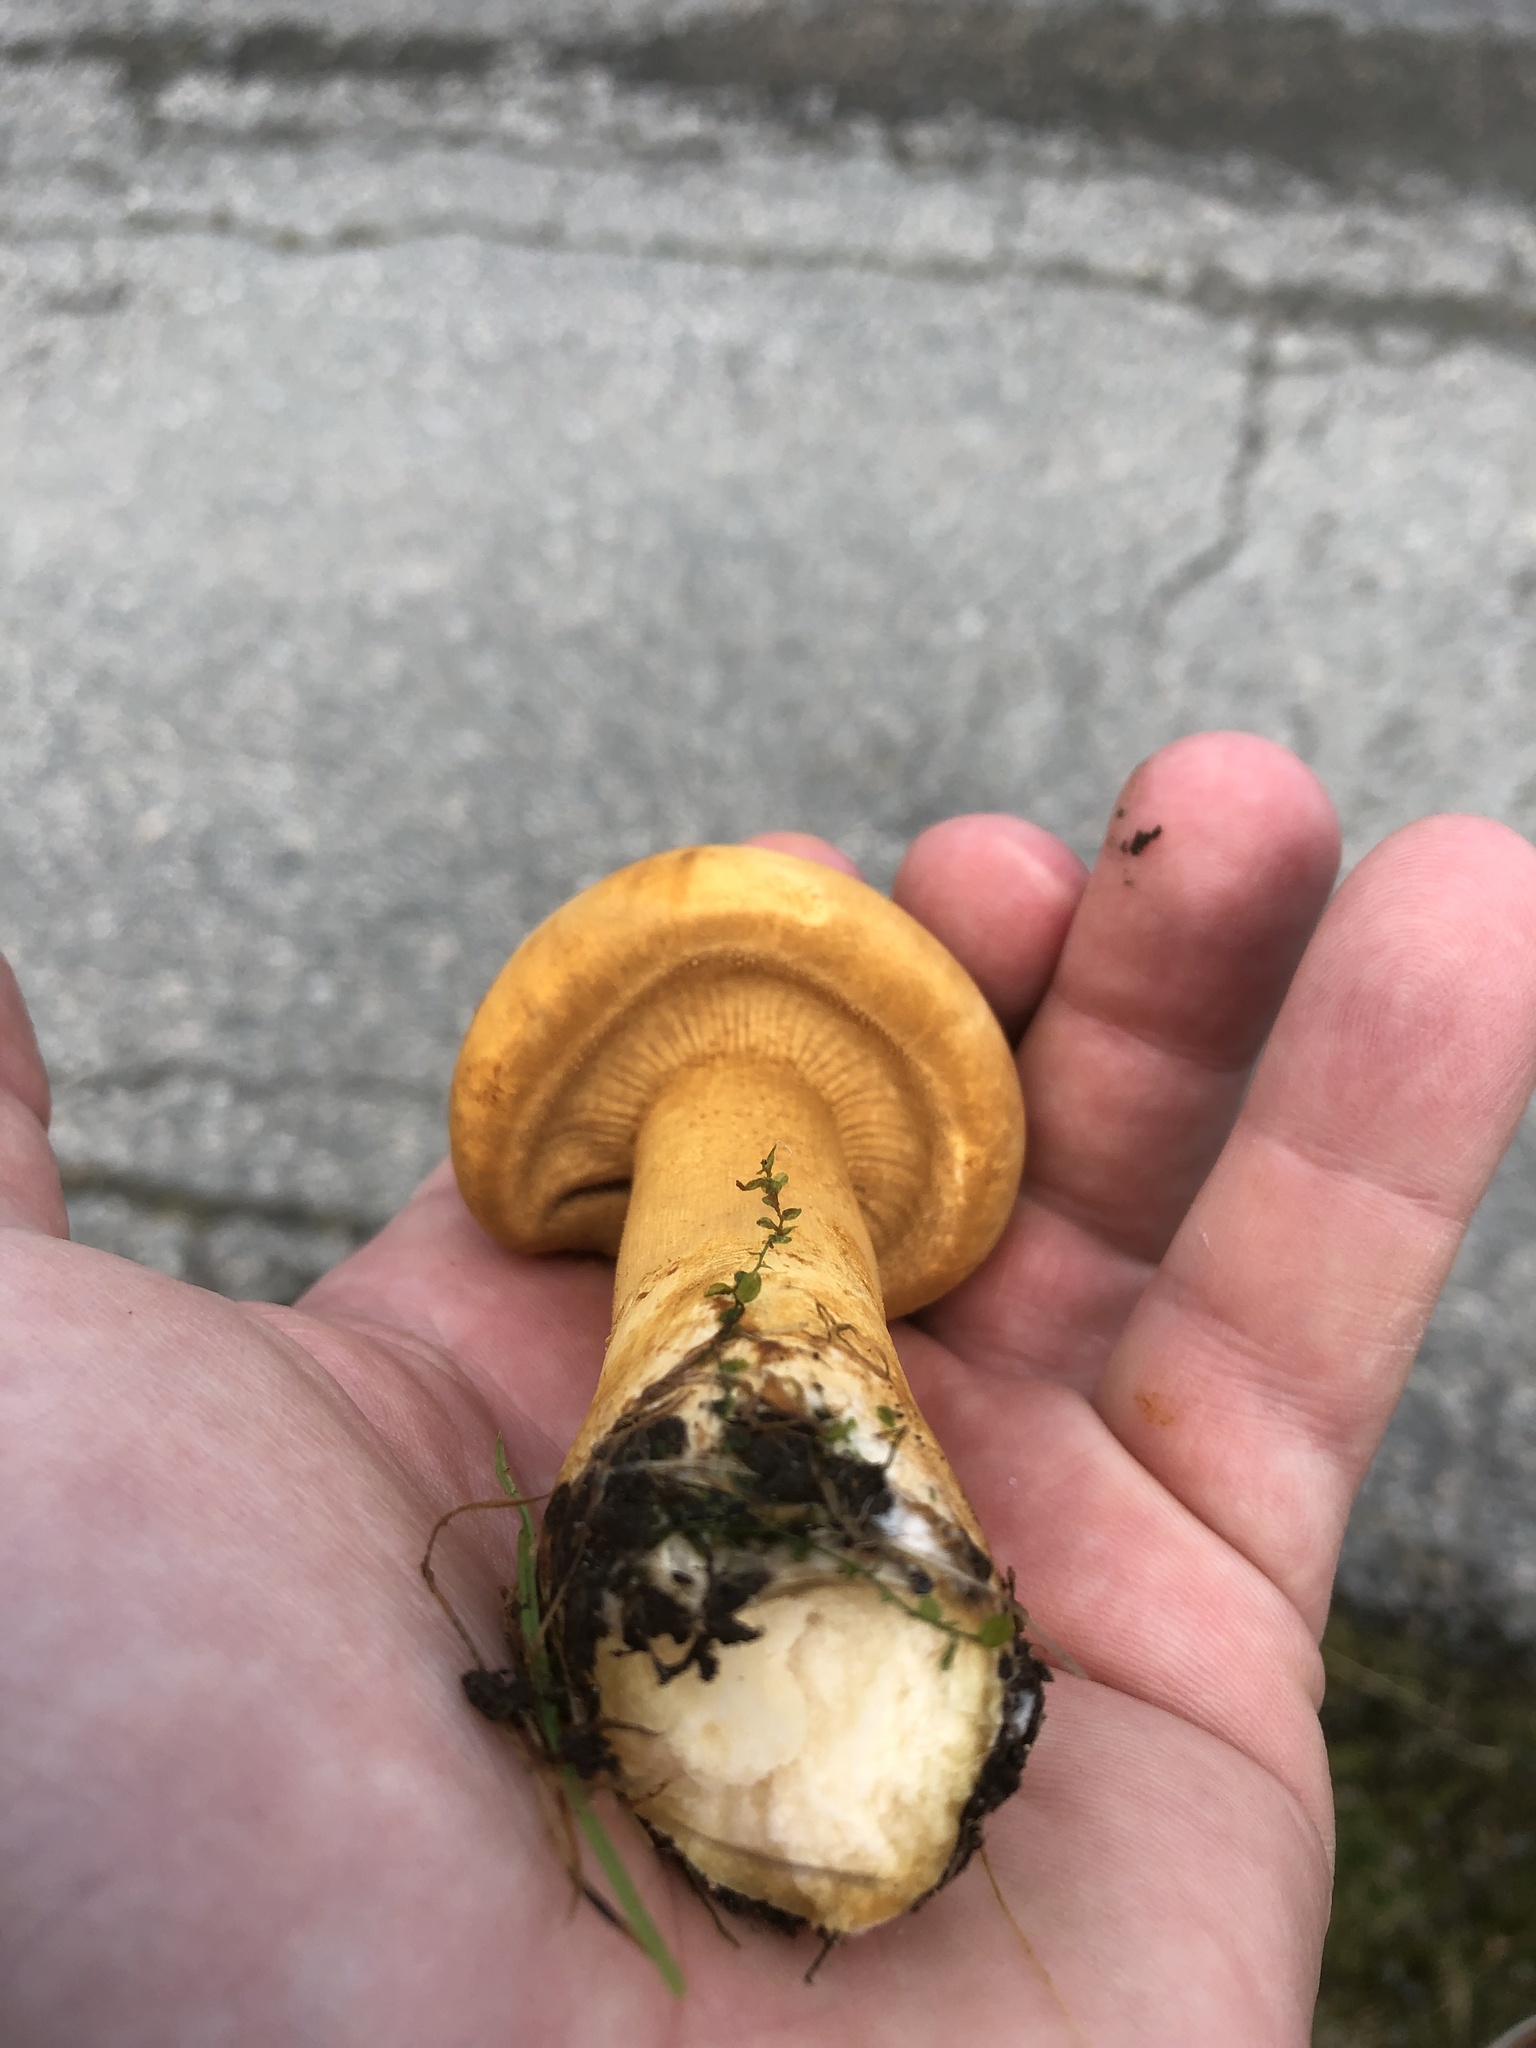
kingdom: Fungi
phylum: Basidiomycota
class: Agaricomycetes
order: Agaricales
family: Tricholomataceae
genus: Phaeolepiota
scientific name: Phaeolepiota aurea
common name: Golden bootleg
